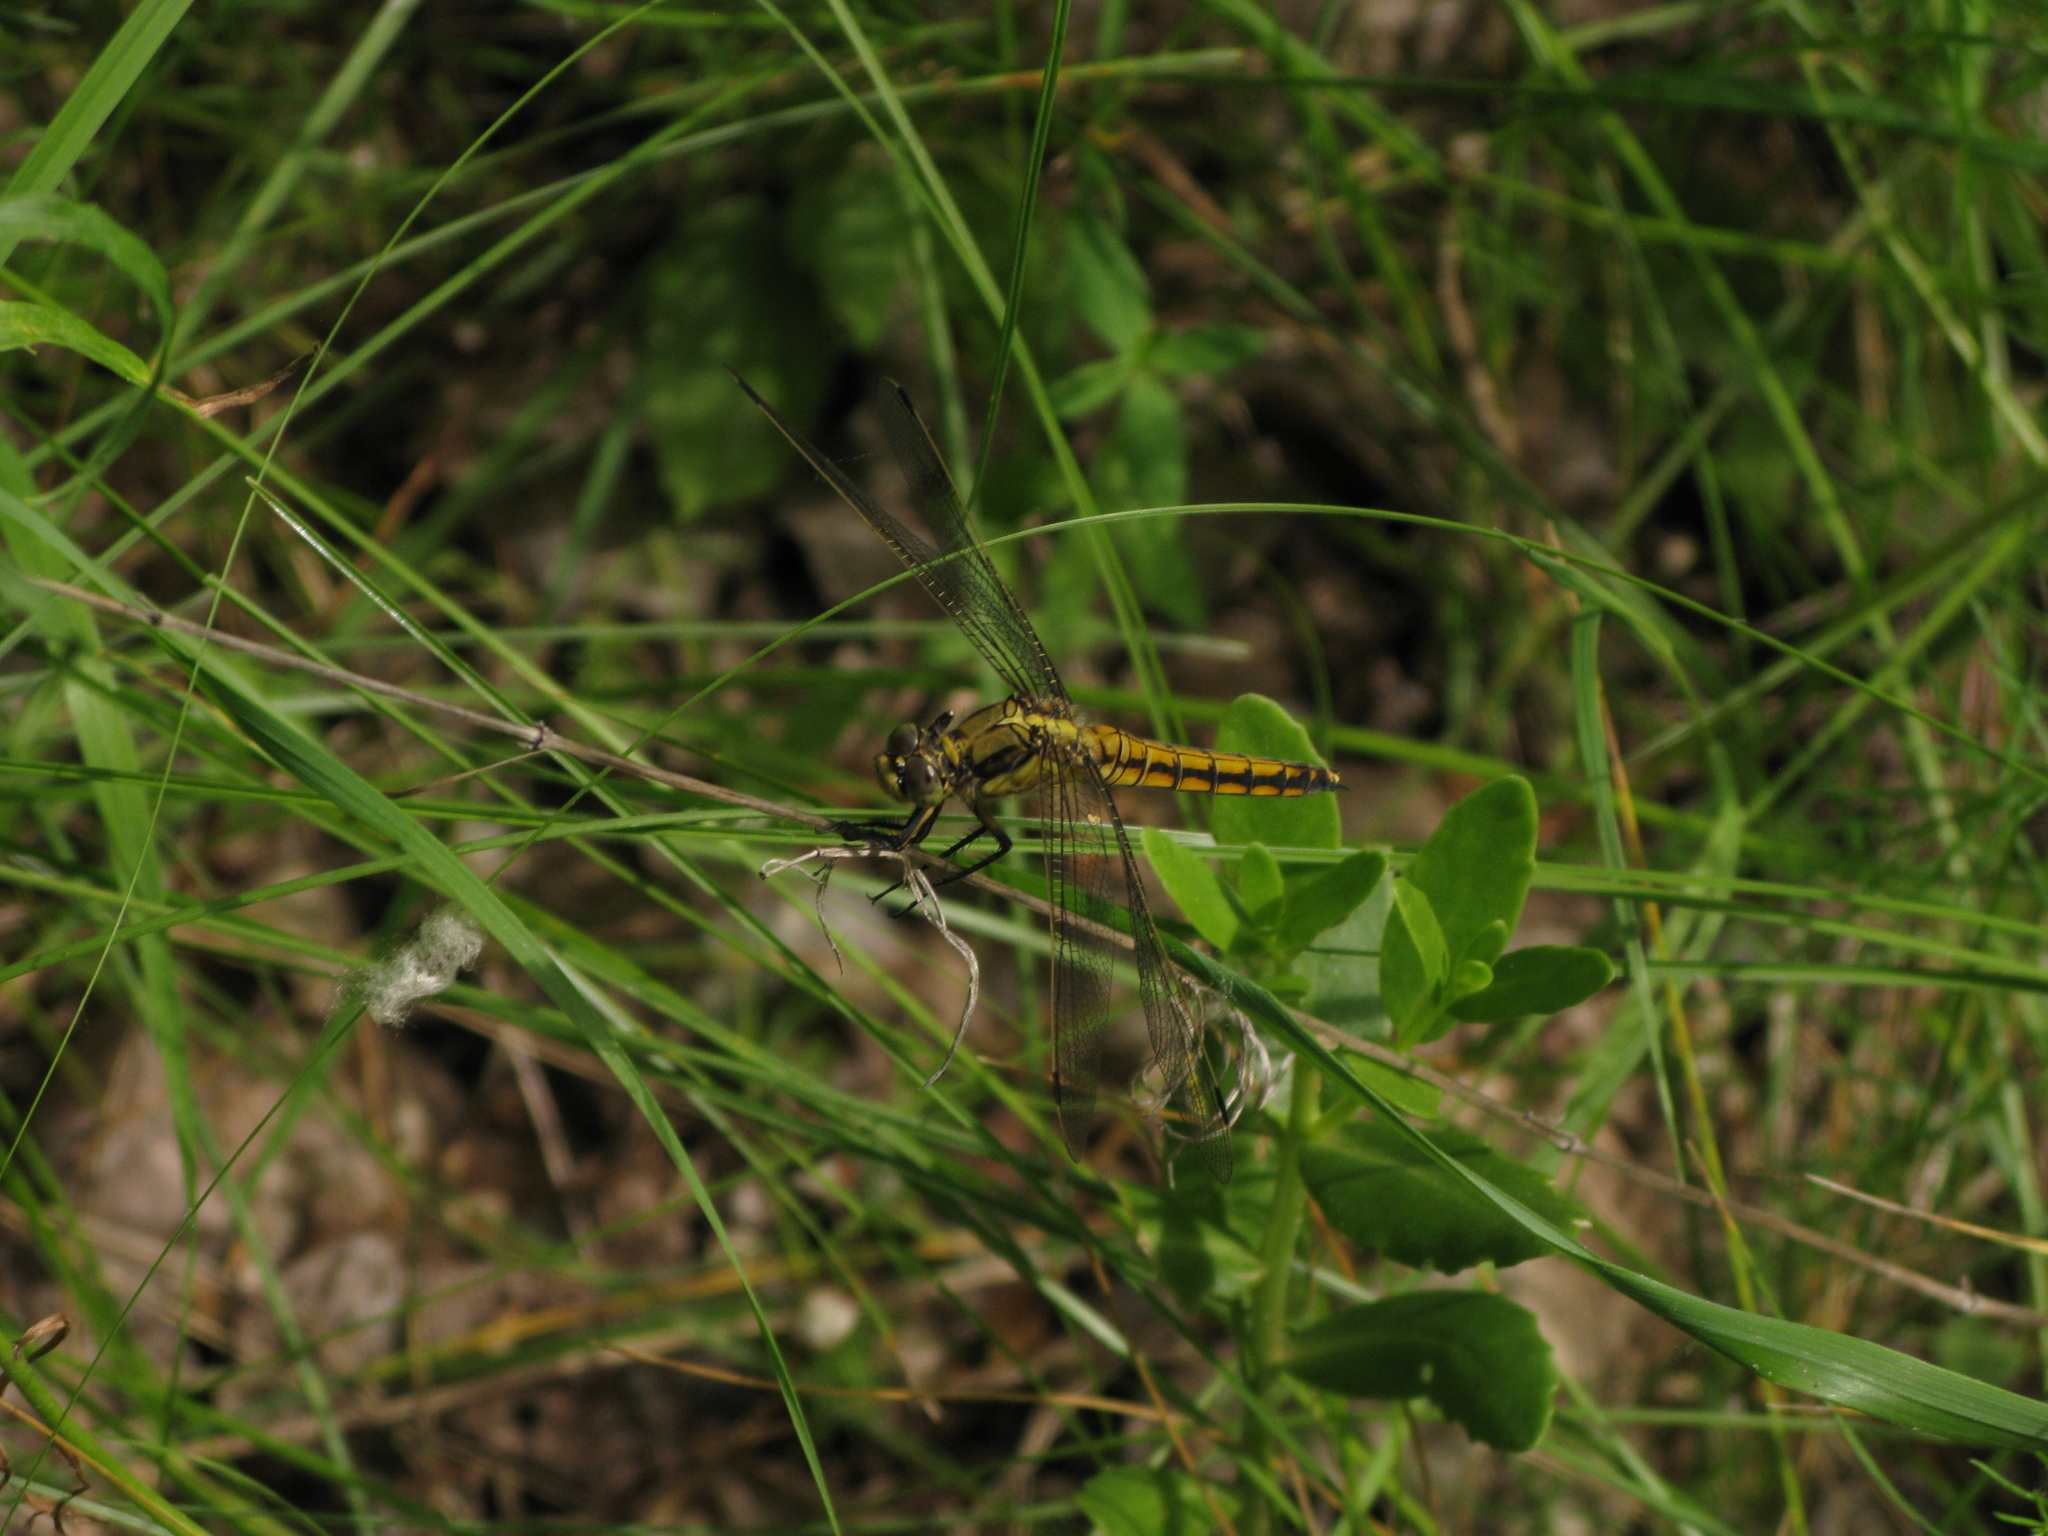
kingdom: Animalia
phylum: Arthropoda
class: Insecta
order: Odonata
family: Libellulidae
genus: Orthetrum
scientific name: Orthetrum cancellatum
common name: Black-tailed skimmer
